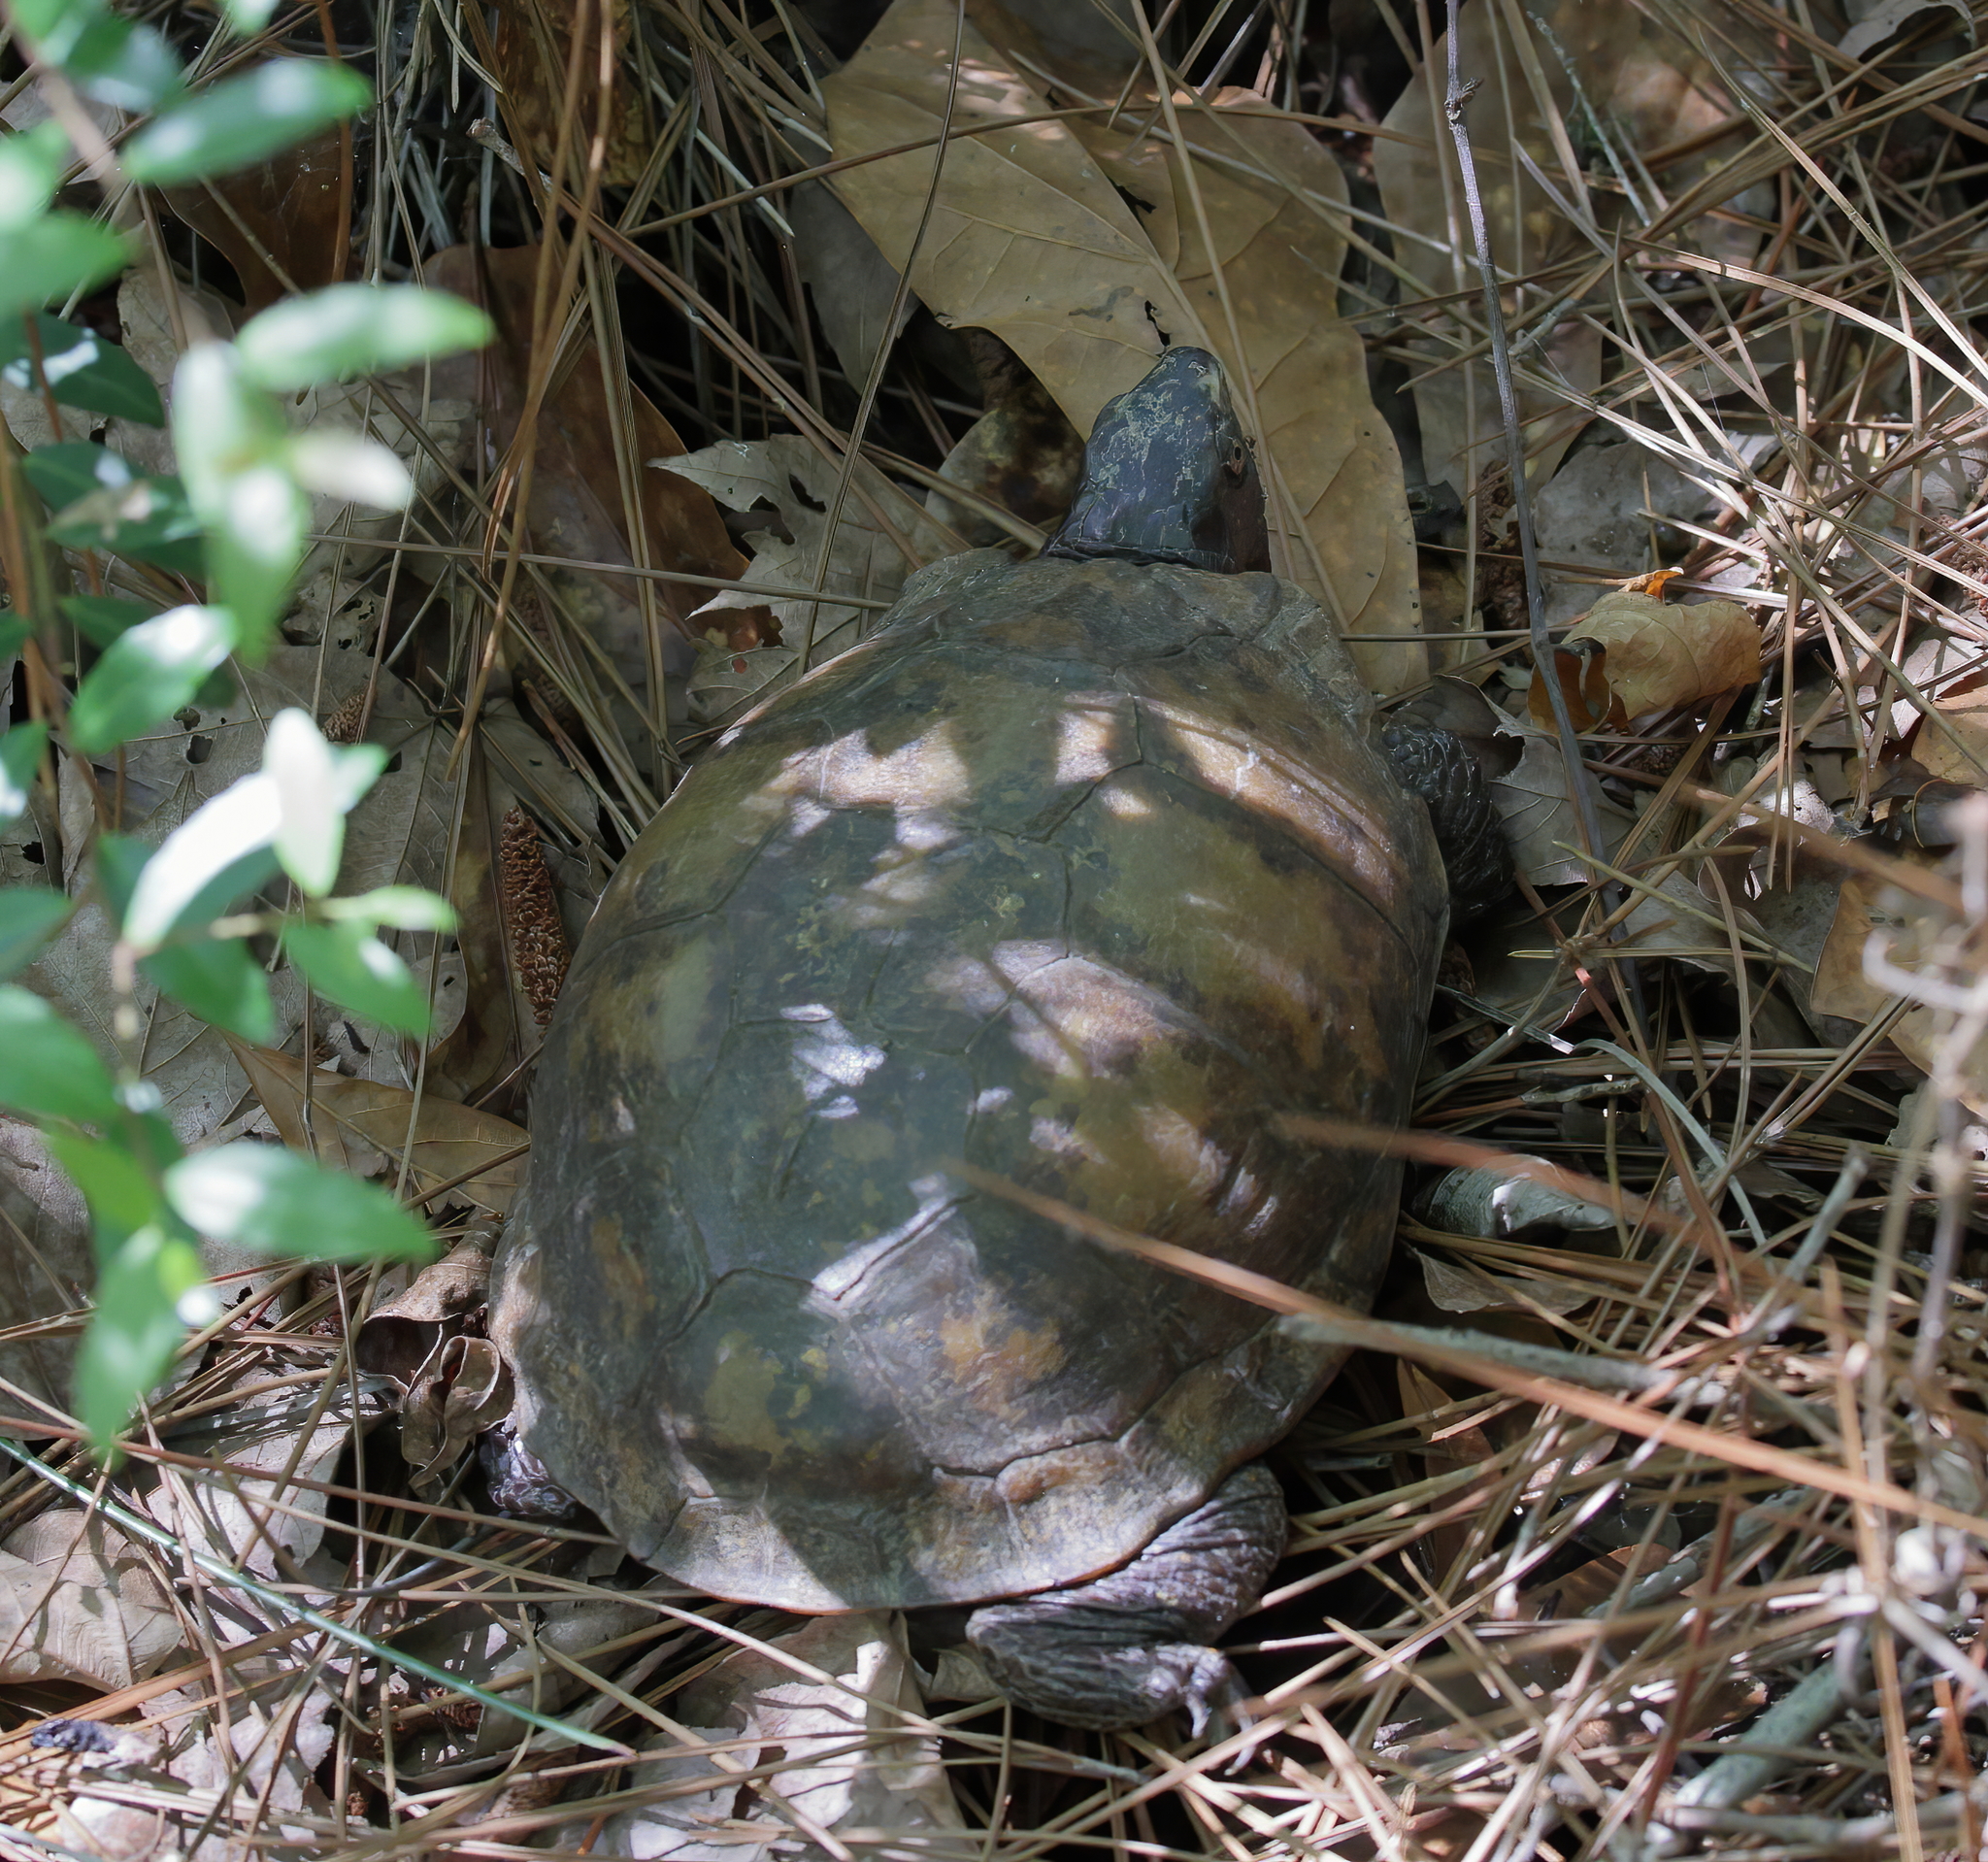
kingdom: Animalia
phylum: Chordata
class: Testudines
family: Emydidae
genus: Terrapene
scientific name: Terrapene carolina
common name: Common box turtle
